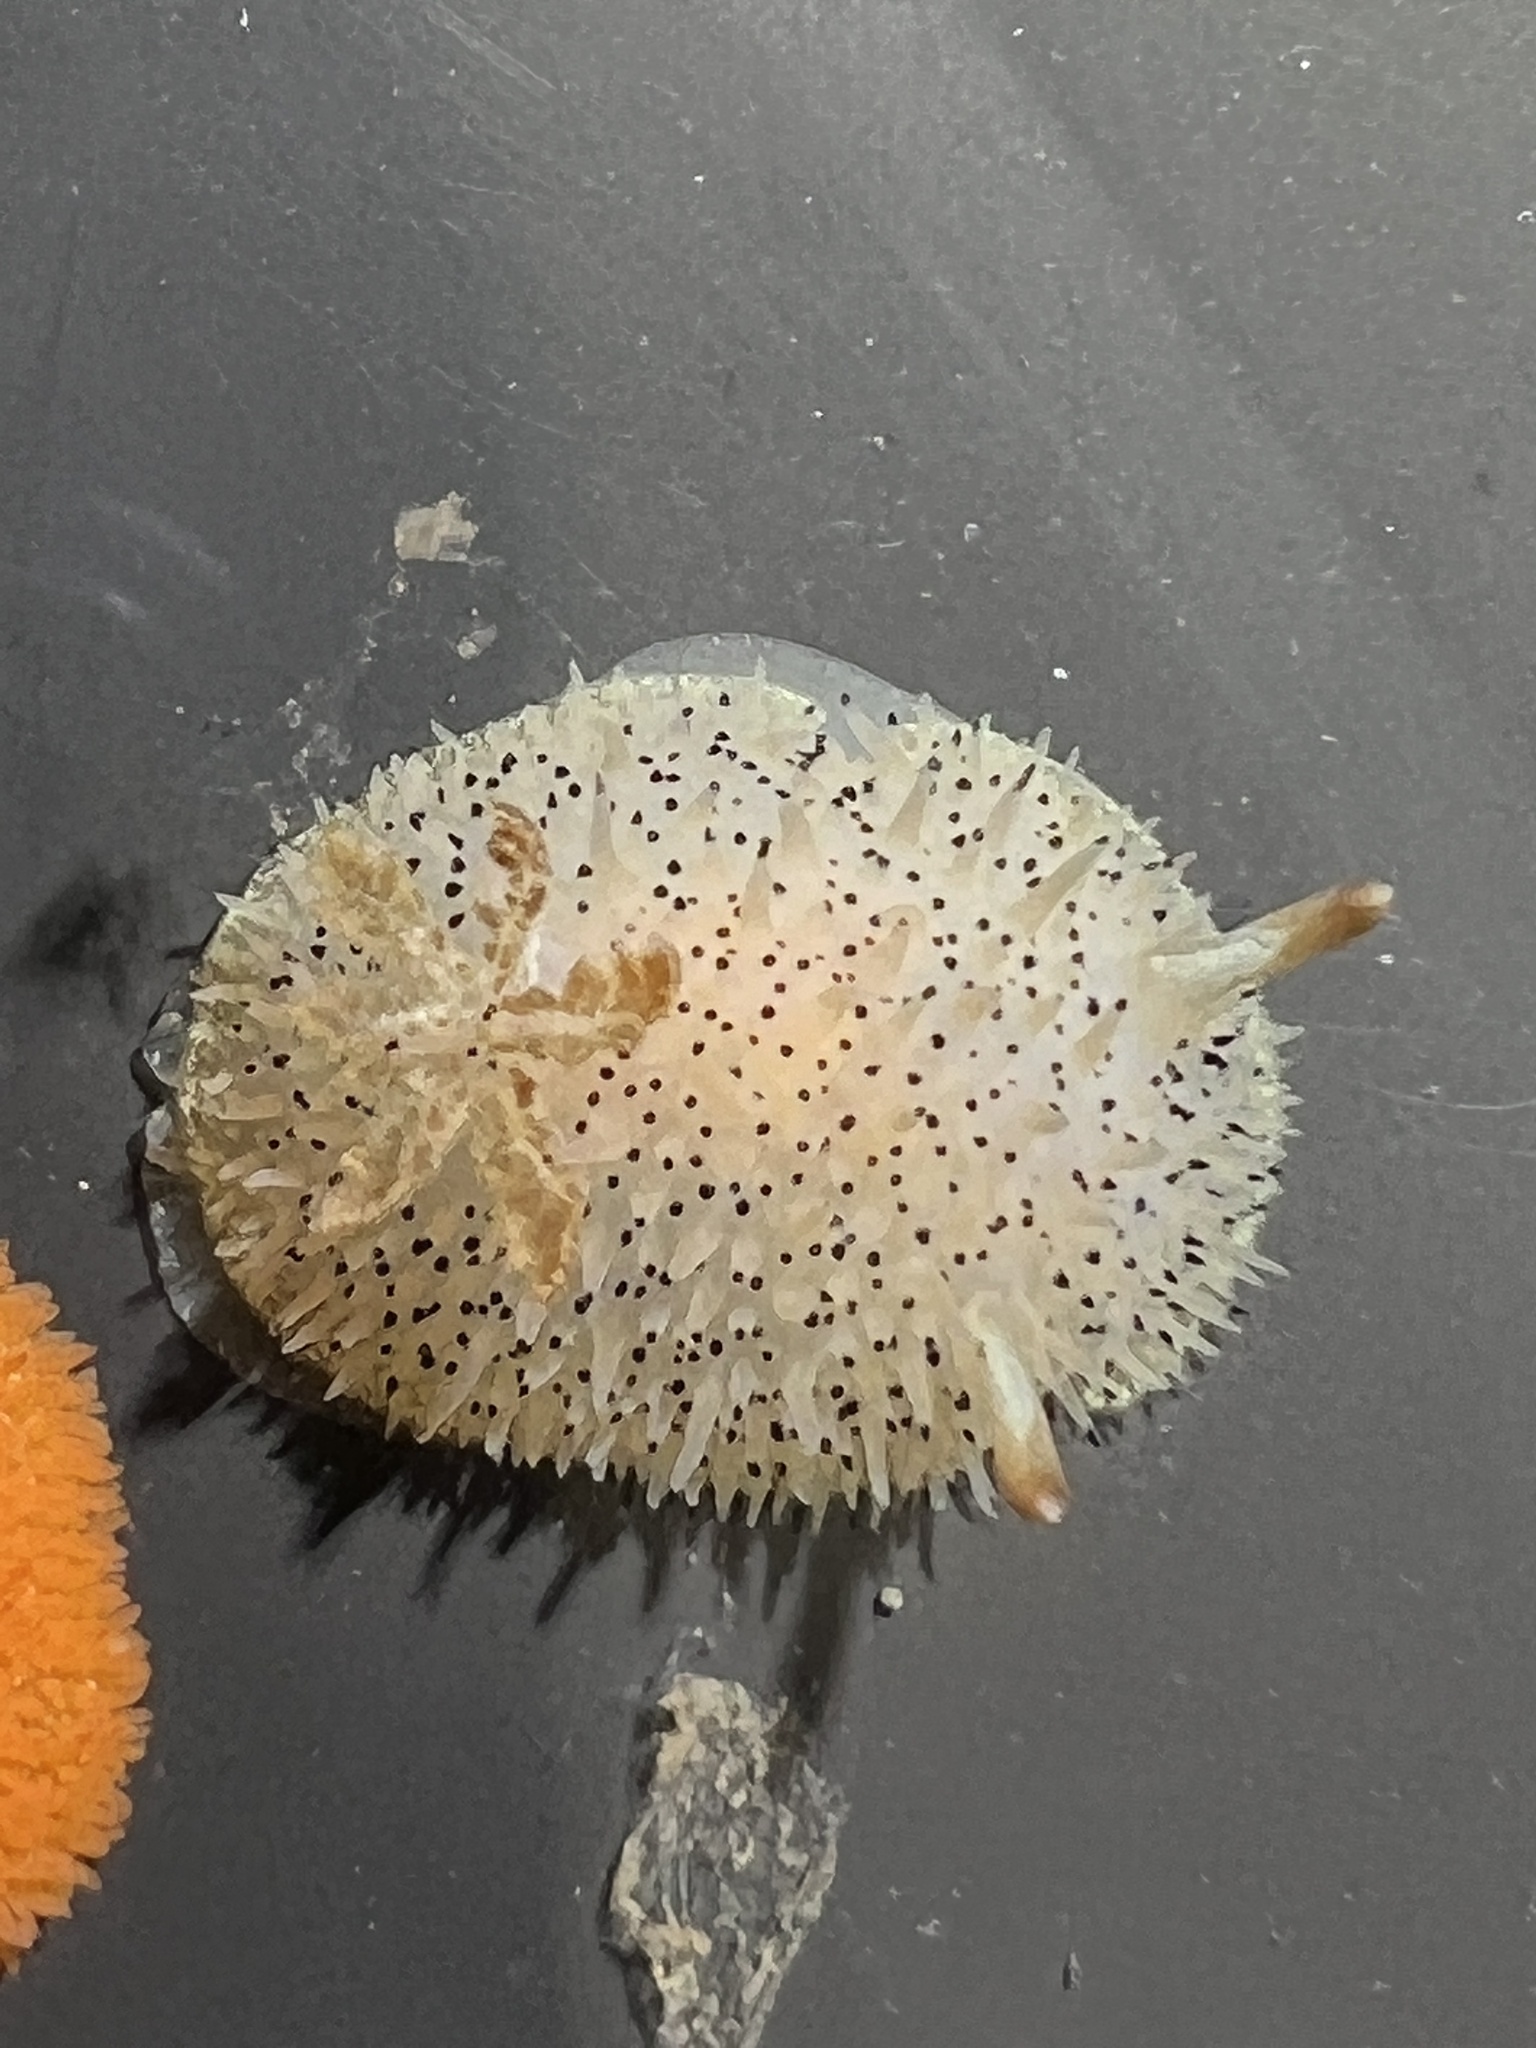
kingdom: Animalia
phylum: Mollusca
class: Gastropoda
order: Nudibranchia
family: Onchidorididae
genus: Acanthodoris
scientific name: Acanthodoris rhodoceras
